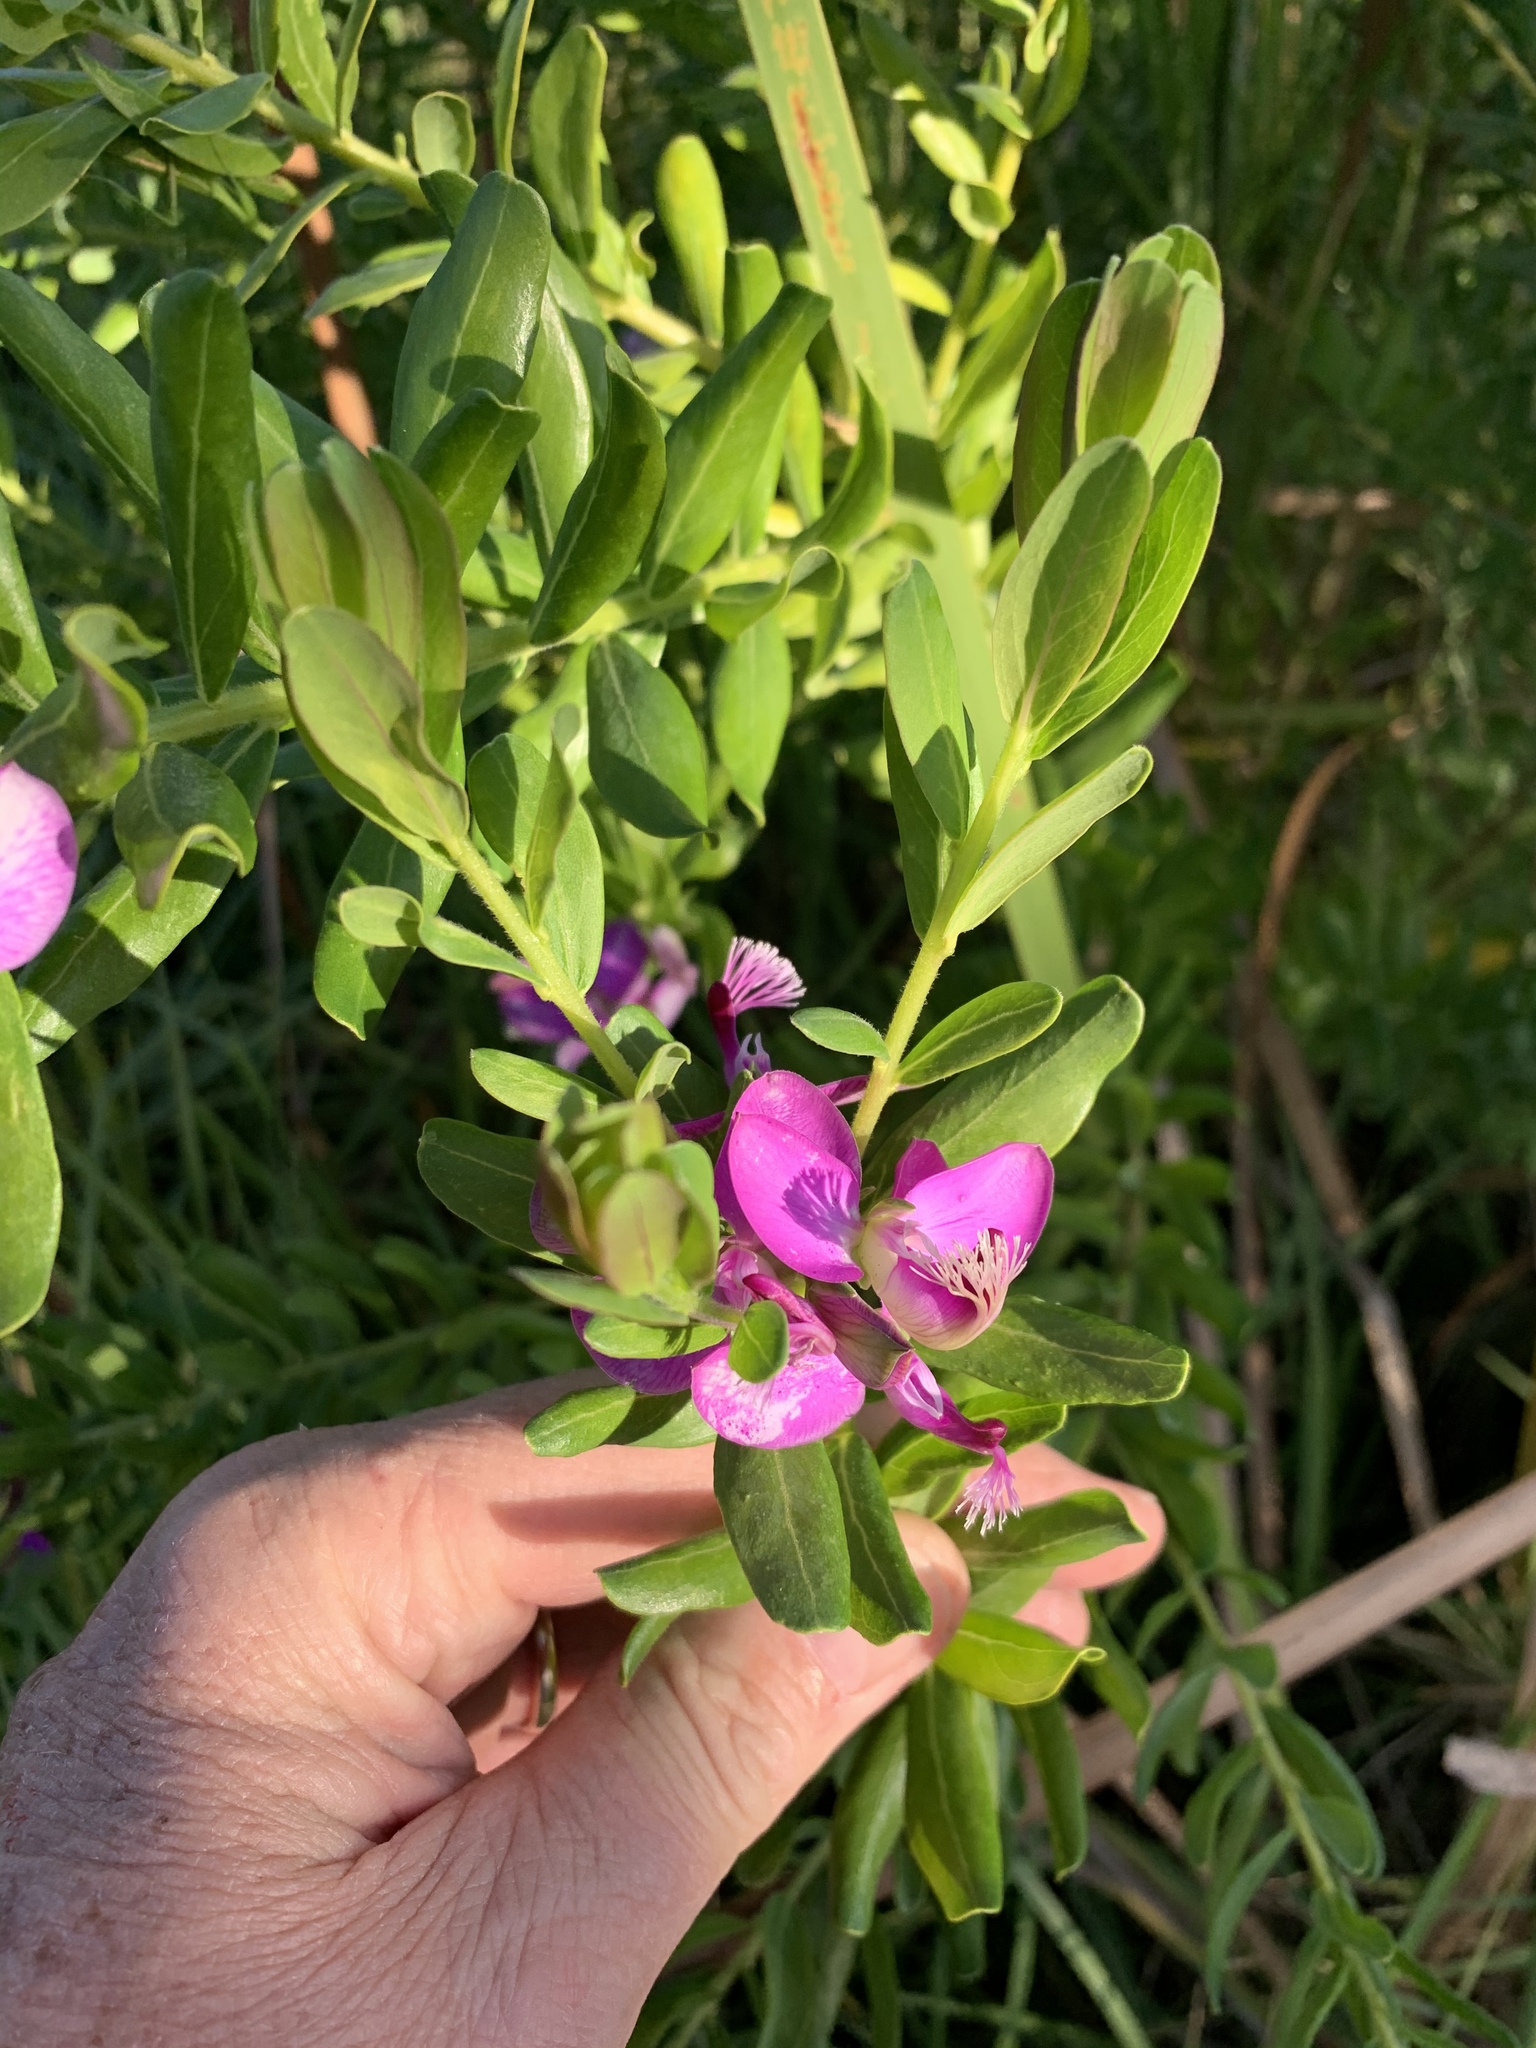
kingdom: Plantae
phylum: Tracheophyta
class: Magnoliopsida
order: Fabales
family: Polygalaceae
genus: Polygala
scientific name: Polygala myrtifolia
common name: Myrtle-leaf milkwort
